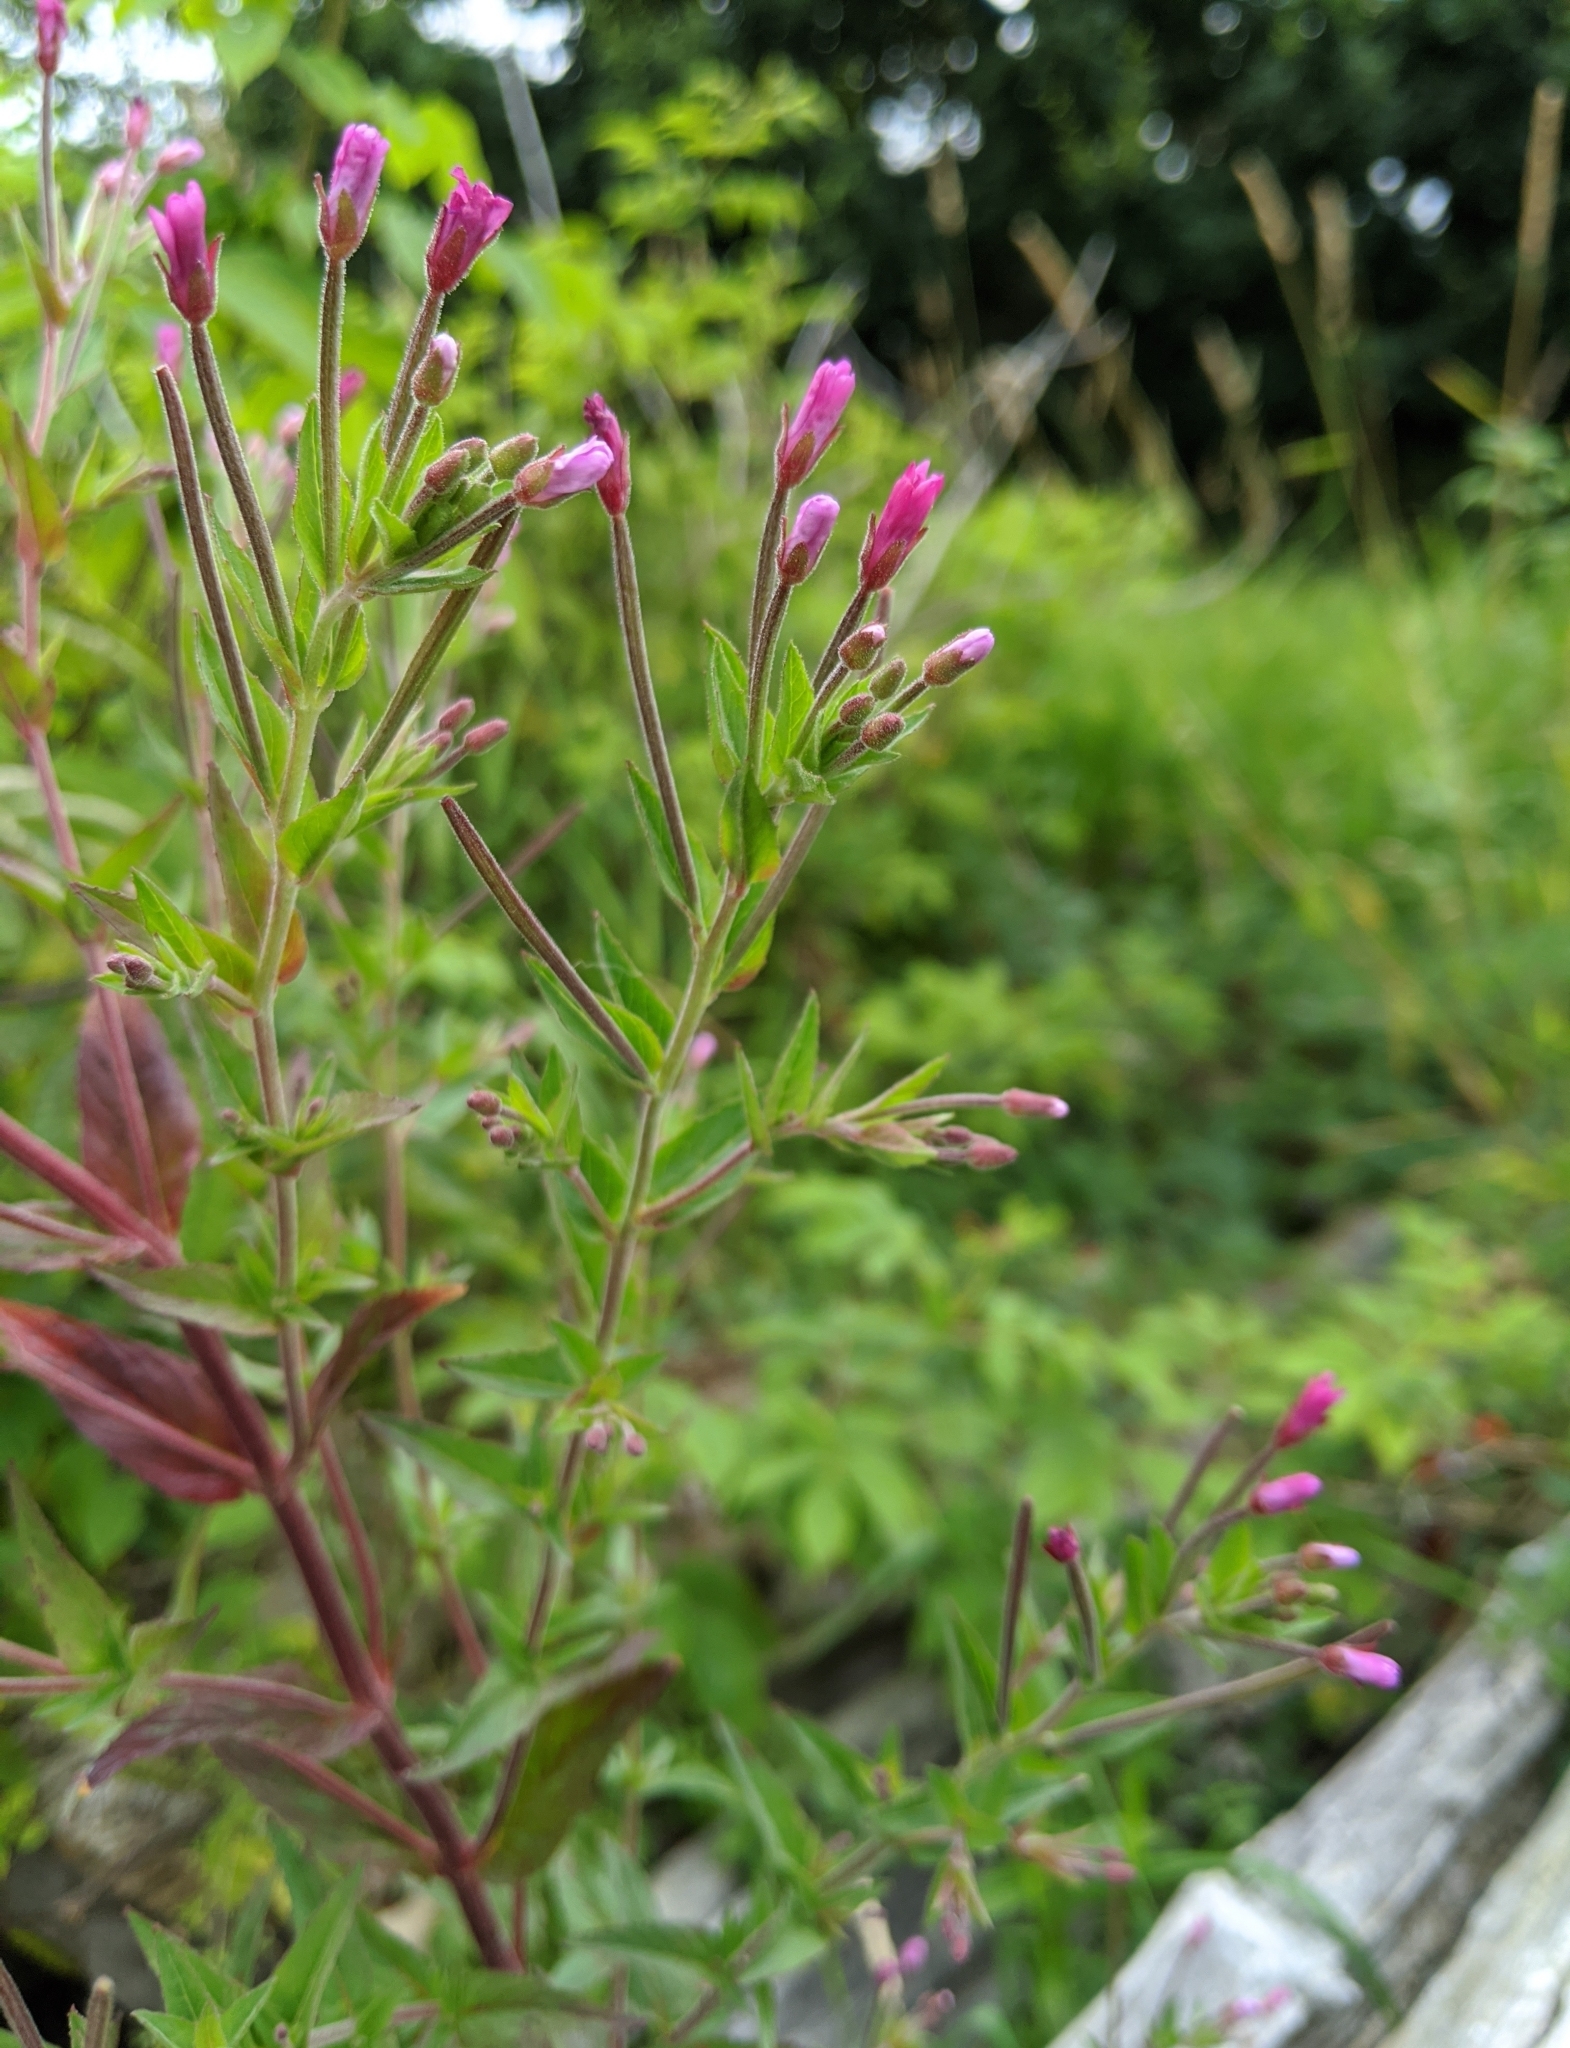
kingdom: Plantae
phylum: Tracheophyta
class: Magnoliopsida
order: Myrtales
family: Onagraceae
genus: Epilobium
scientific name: Epilobium hirsutum
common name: Great willowherb
